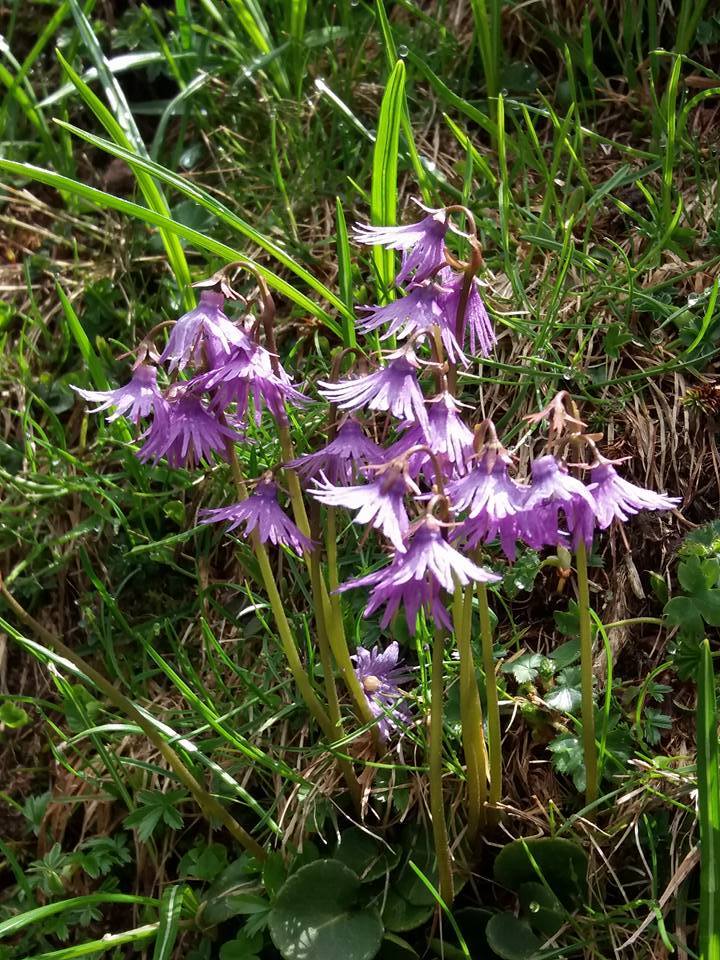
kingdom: Plantae
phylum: Tracheophyta
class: Magnoliopsida
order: Ericales
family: Primulaceae
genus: Soldanella
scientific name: Soldanella alpina
